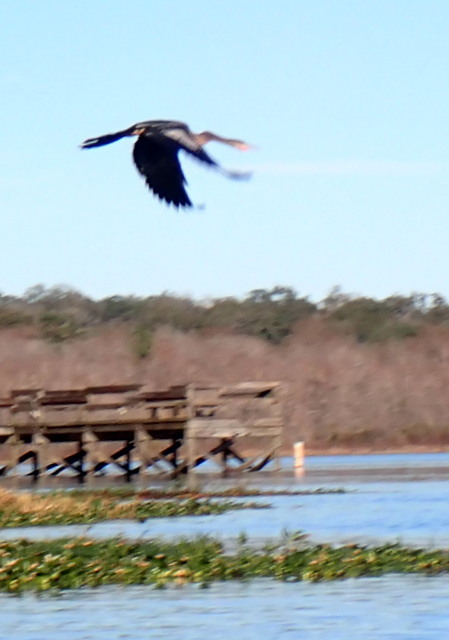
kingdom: Animalia
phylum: Chordata
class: Aves
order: Suliformes
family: Anhingidae
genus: Anhinga
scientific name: Anhinga anhinga
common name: Anhinga
